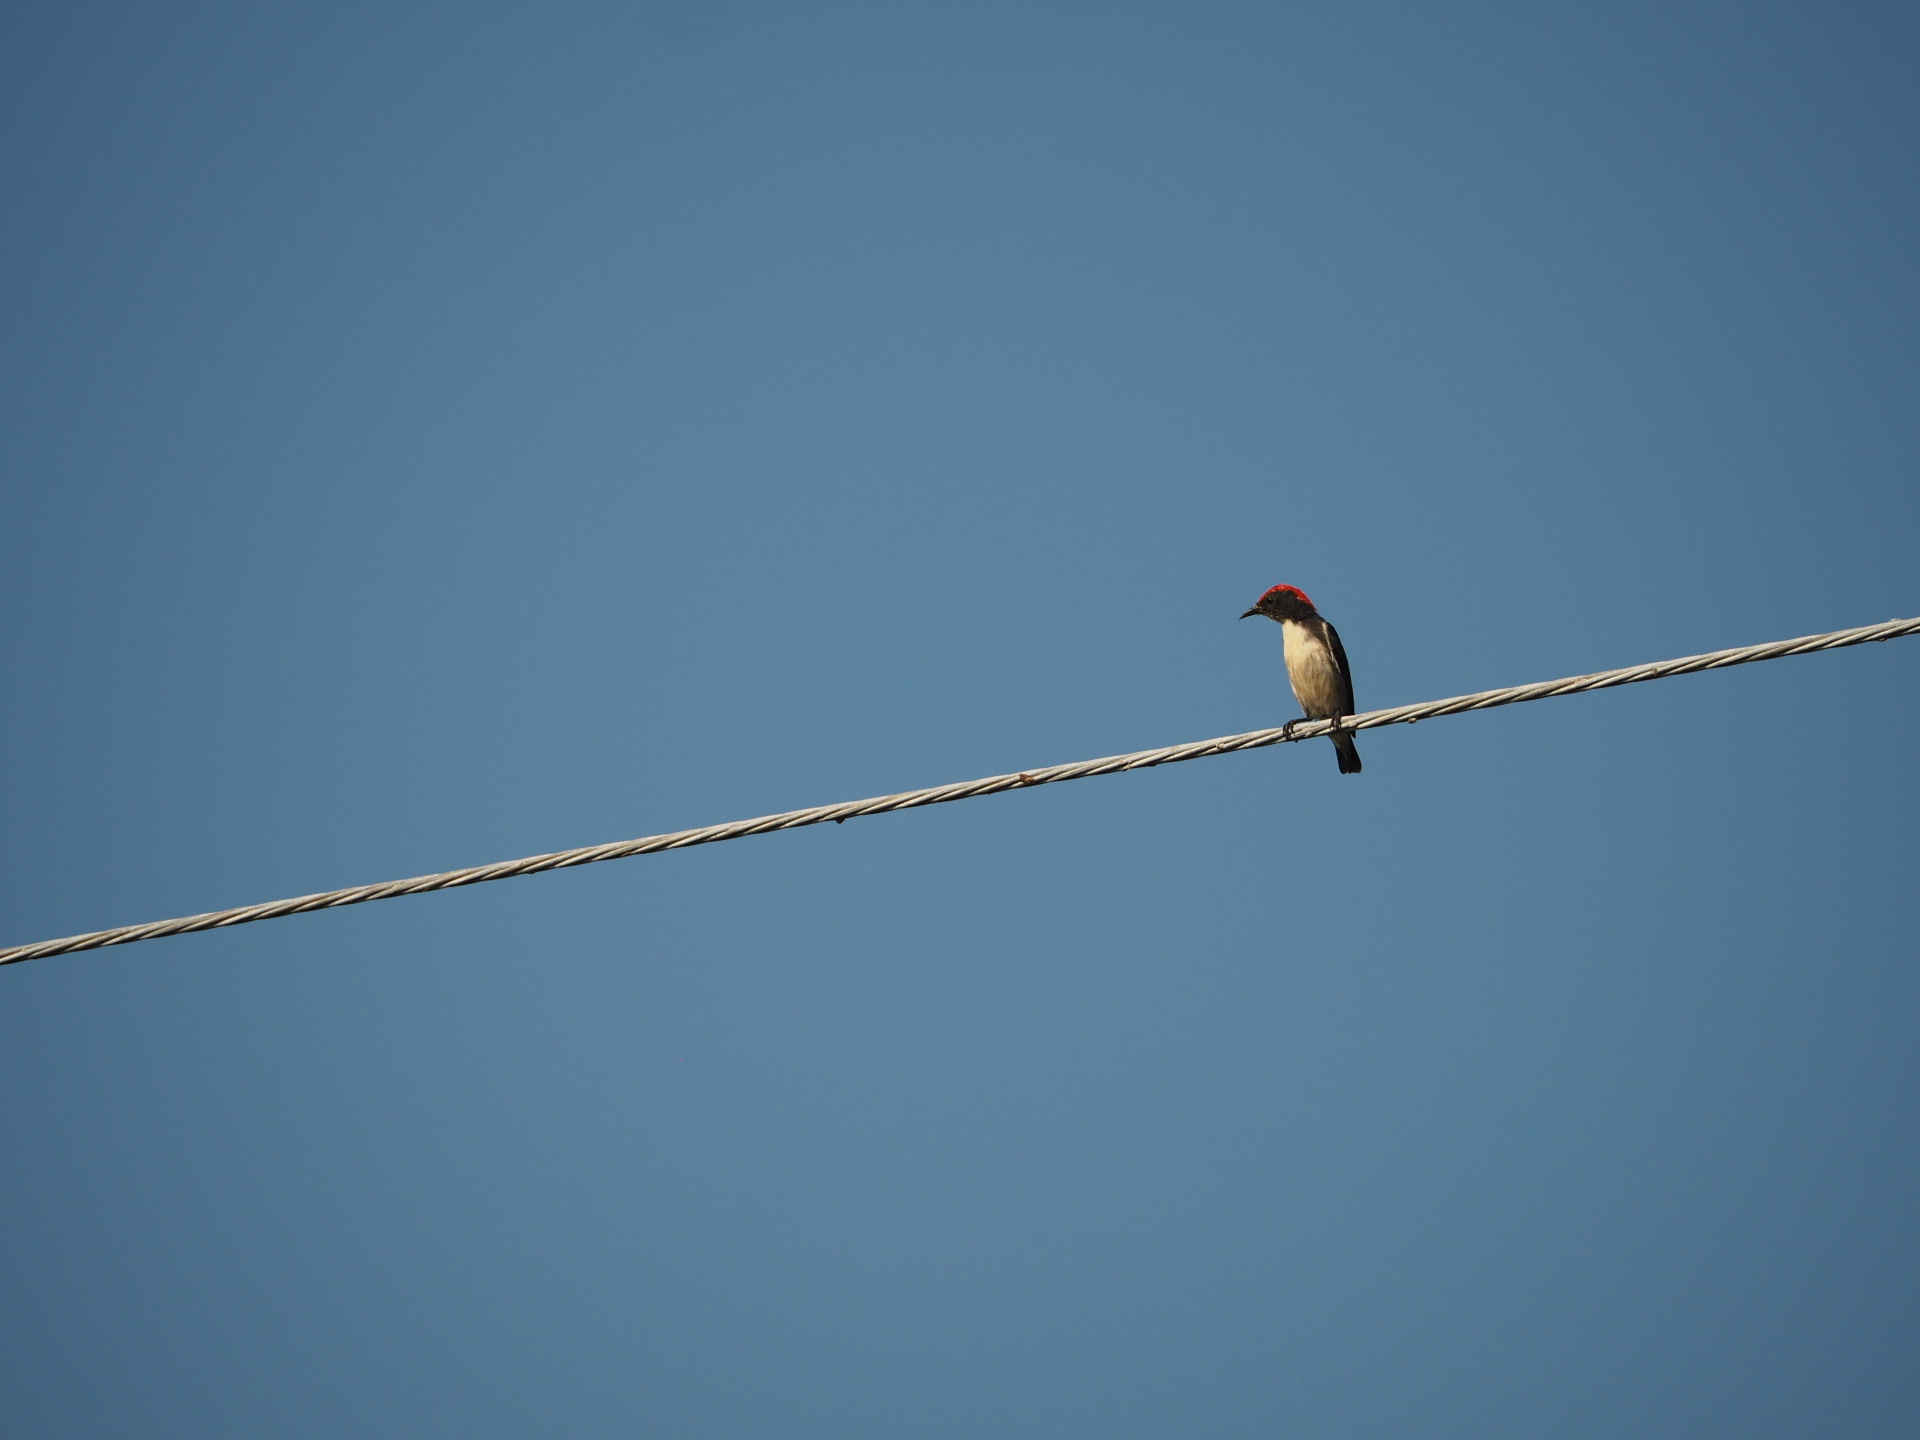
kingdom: Animalia
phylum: Chordata
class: Aves
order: Passeriformes
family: Dicaeidae
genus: Dicaeum
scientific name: Dicaeum cruentatum
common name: Scarlet-backed flowerpecker
